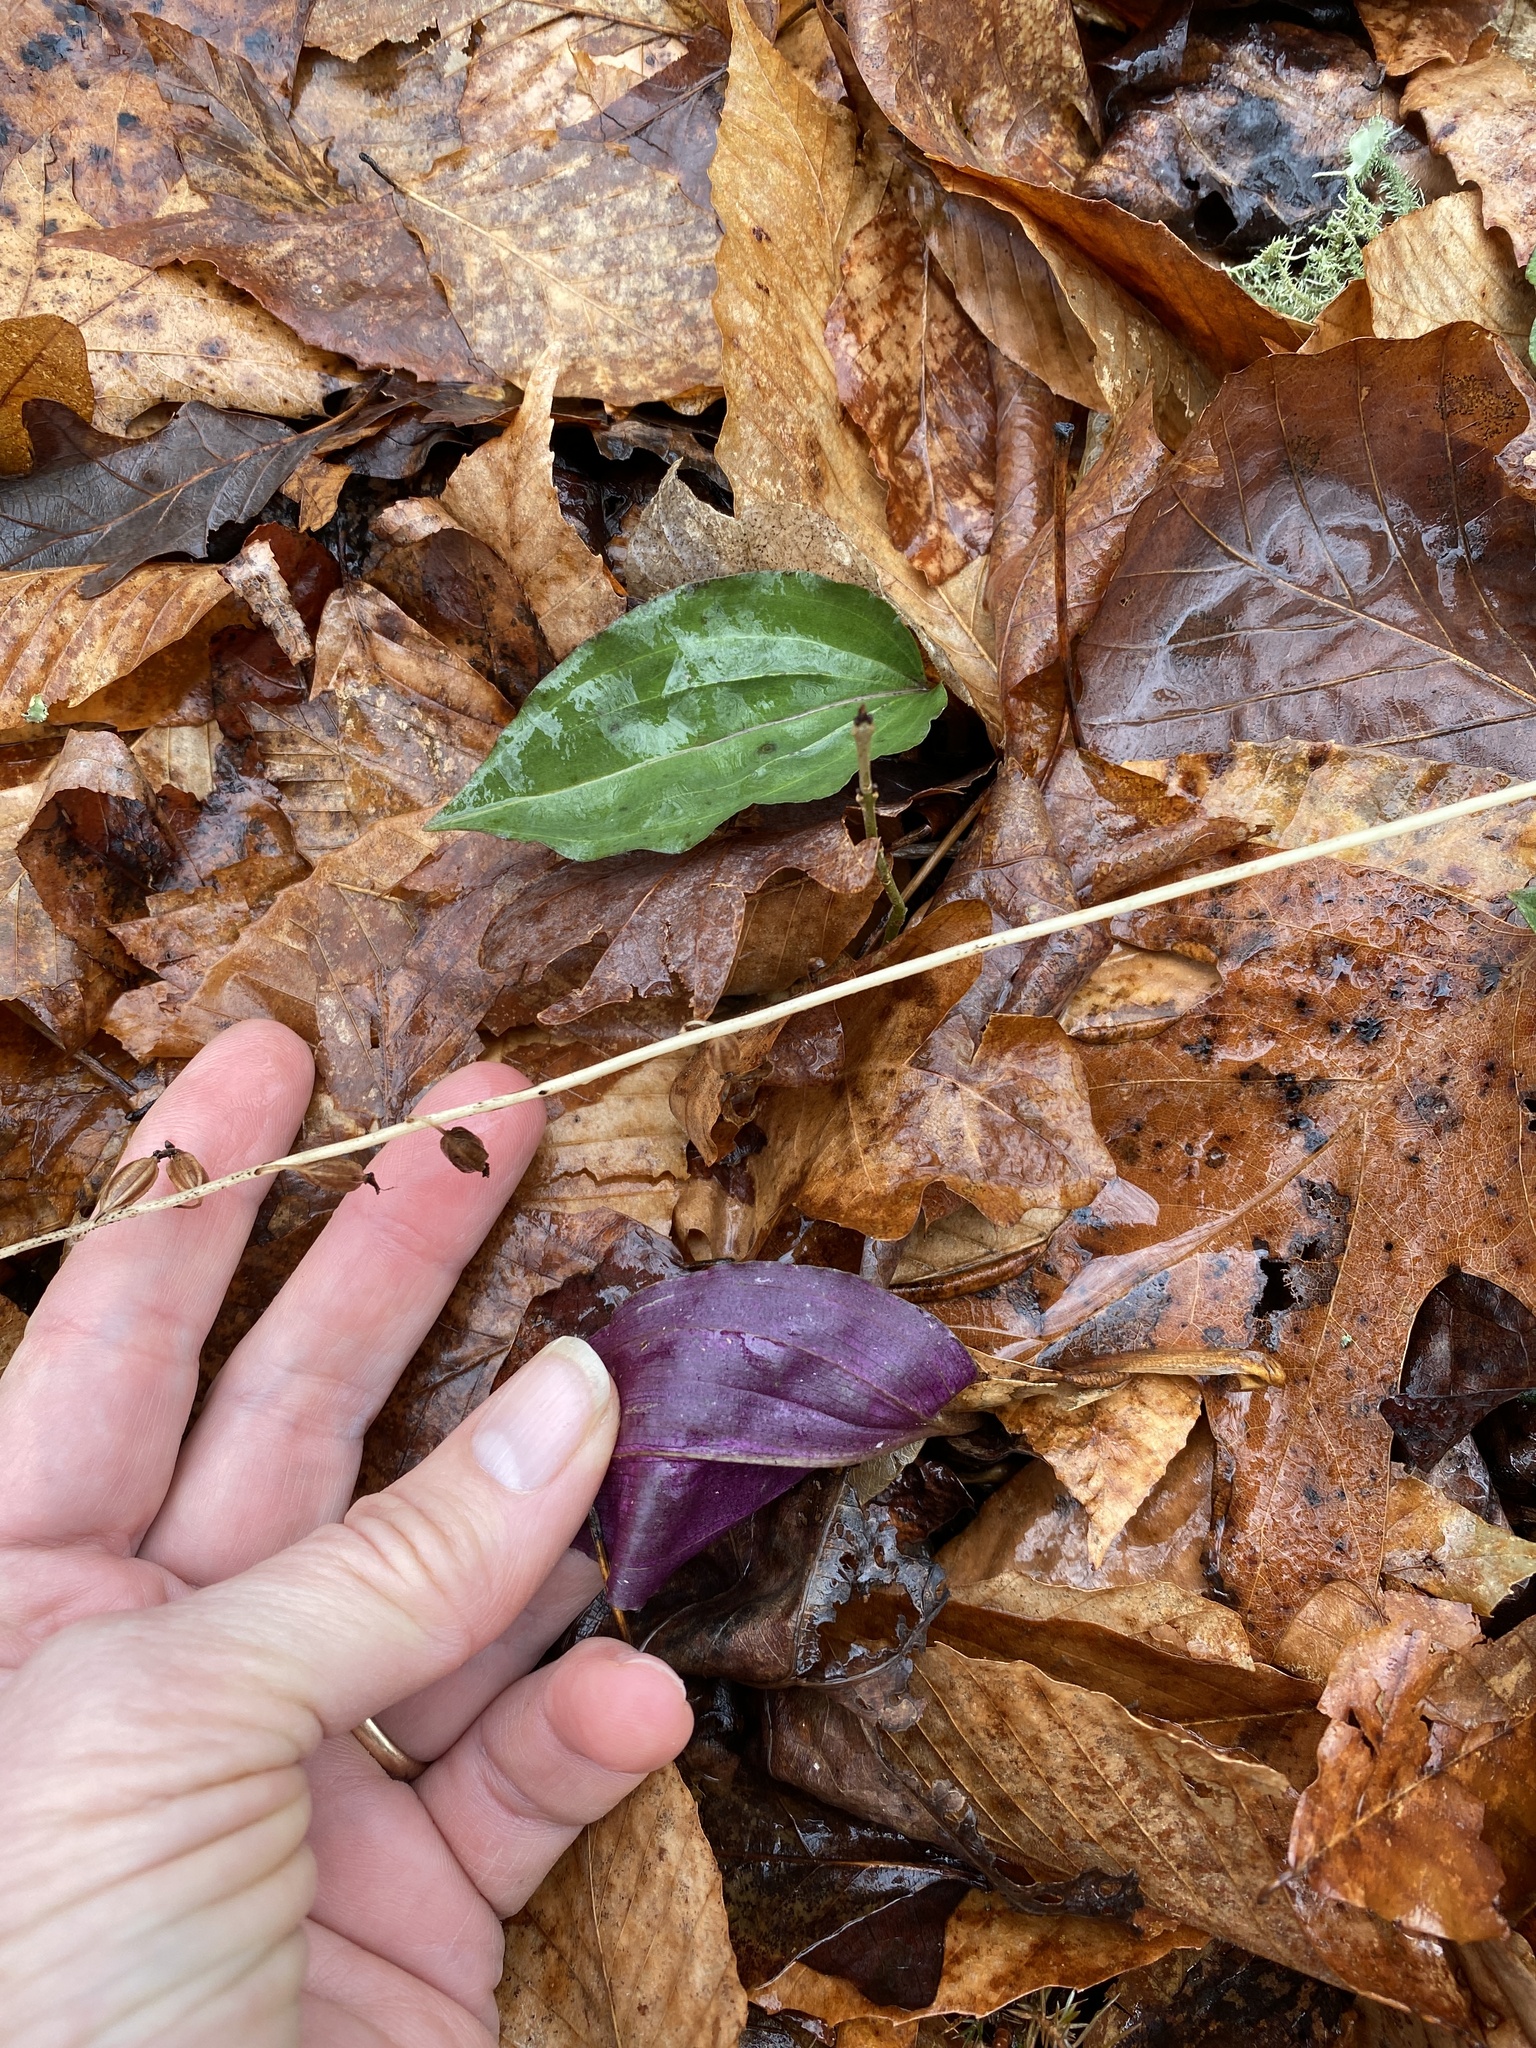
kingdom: Plantae
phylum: Tracheophyta
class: Liliopsida
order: Asparagales
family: Orchidaceae
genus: Tipularia
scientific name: Tipularia discolor
